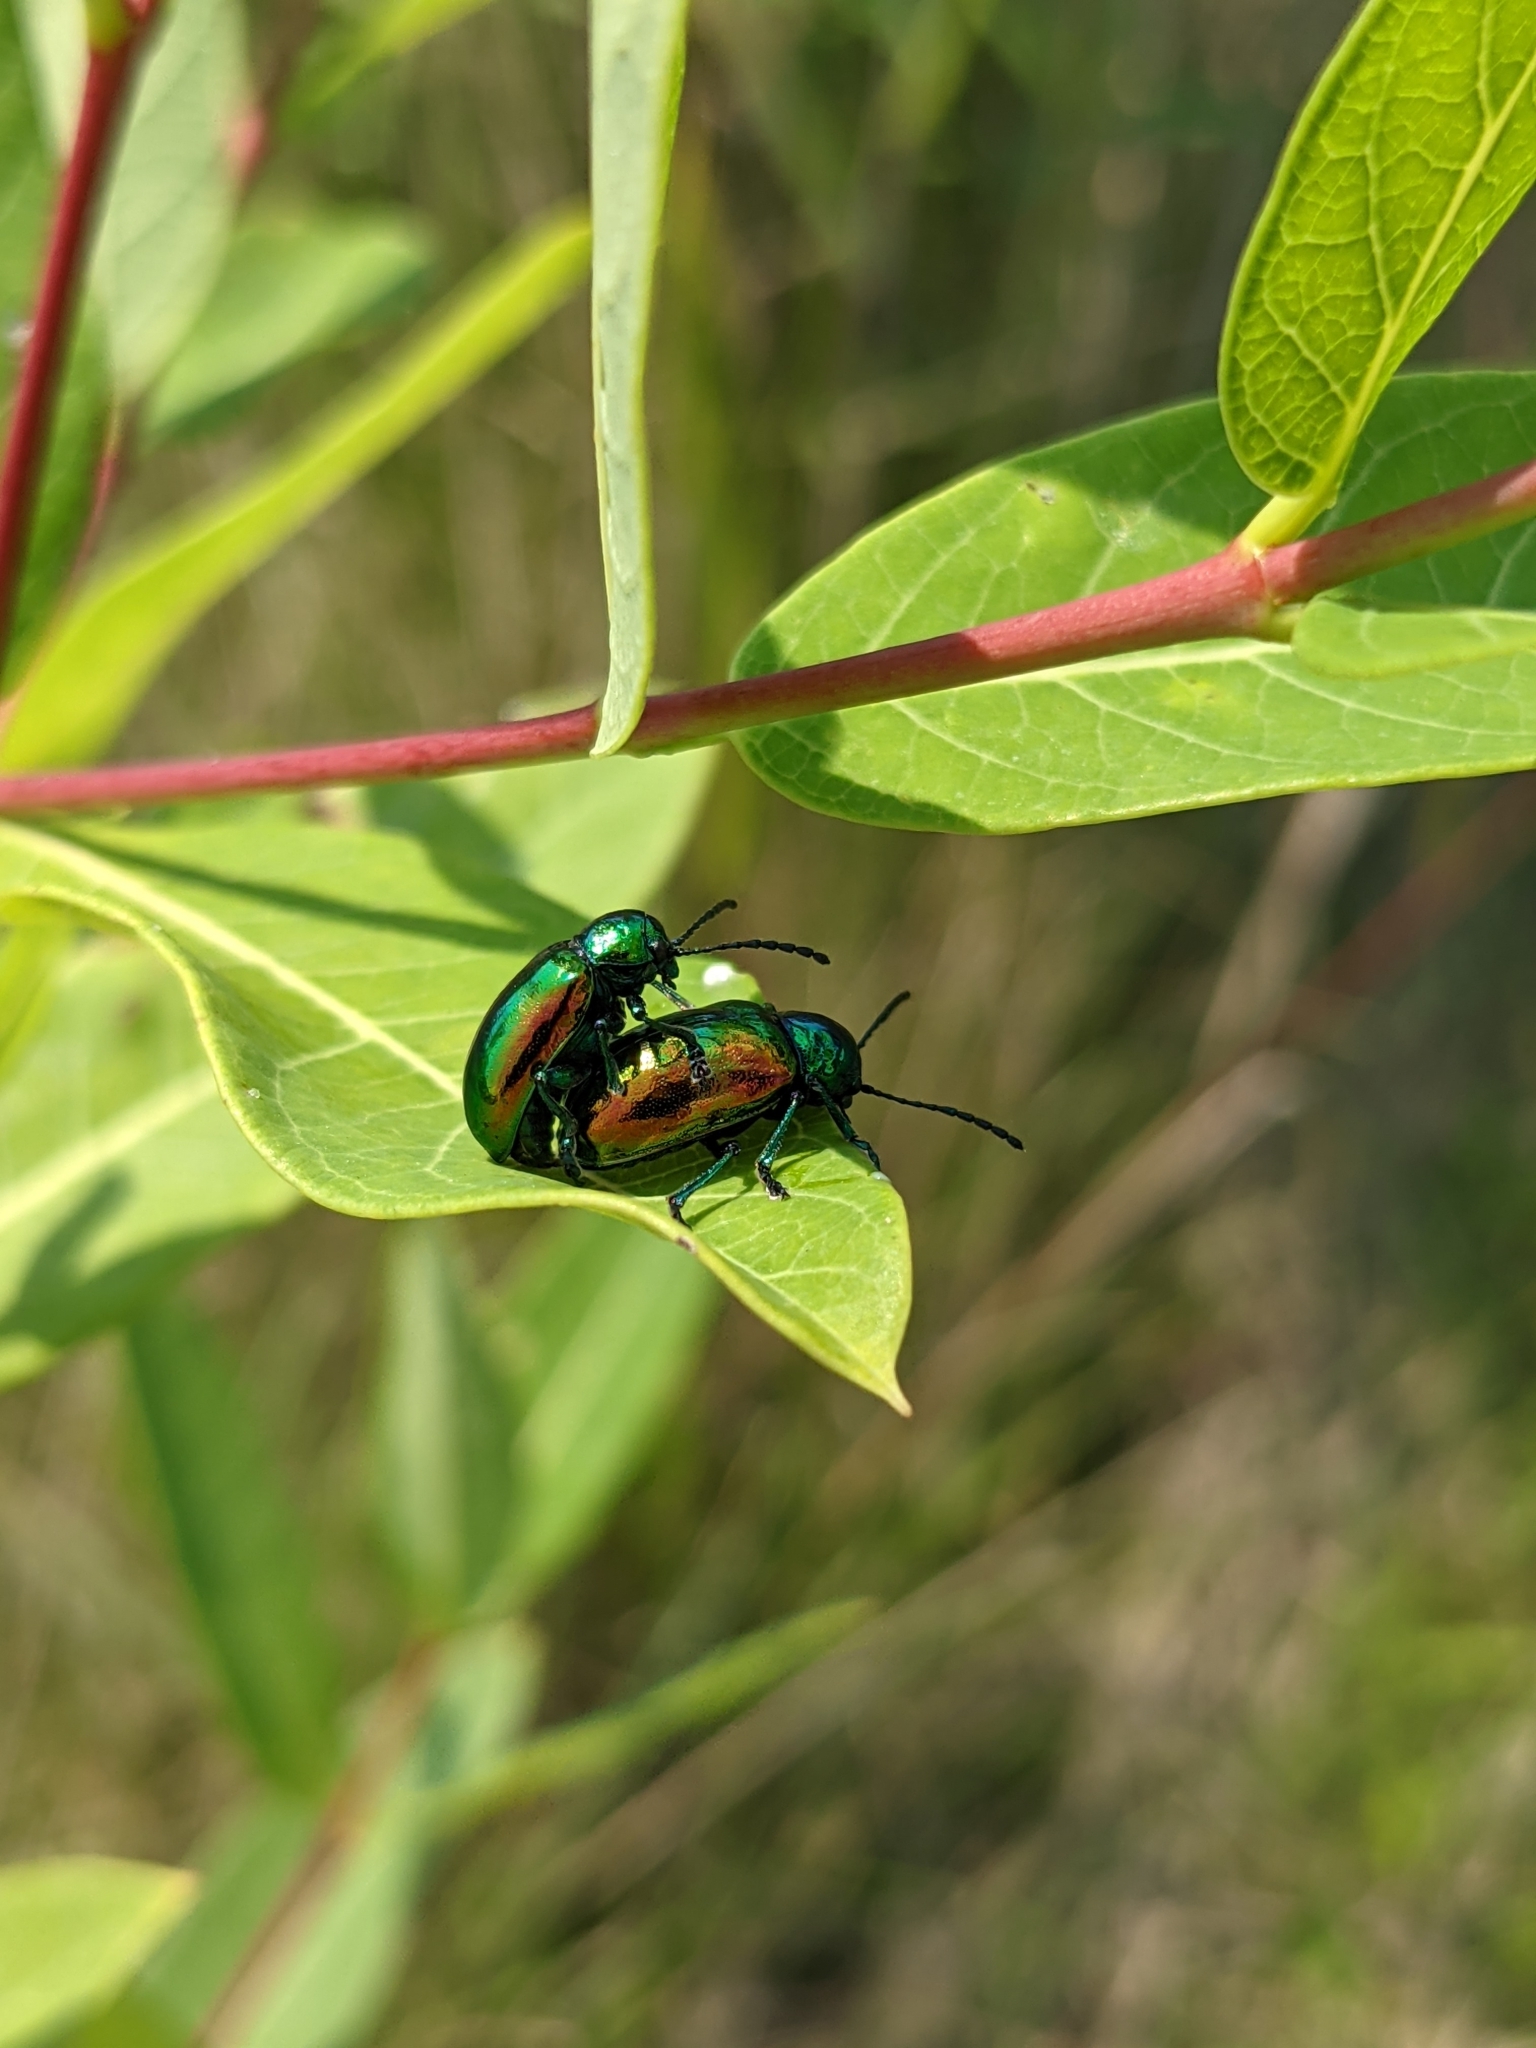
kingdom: Animalia
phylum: Arthropoda
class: Insecta
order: Coleoptera
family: Chrysomelidae
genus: Chrysochus
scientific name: Chrysochus auratus
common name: Dogbane leaf beetle
